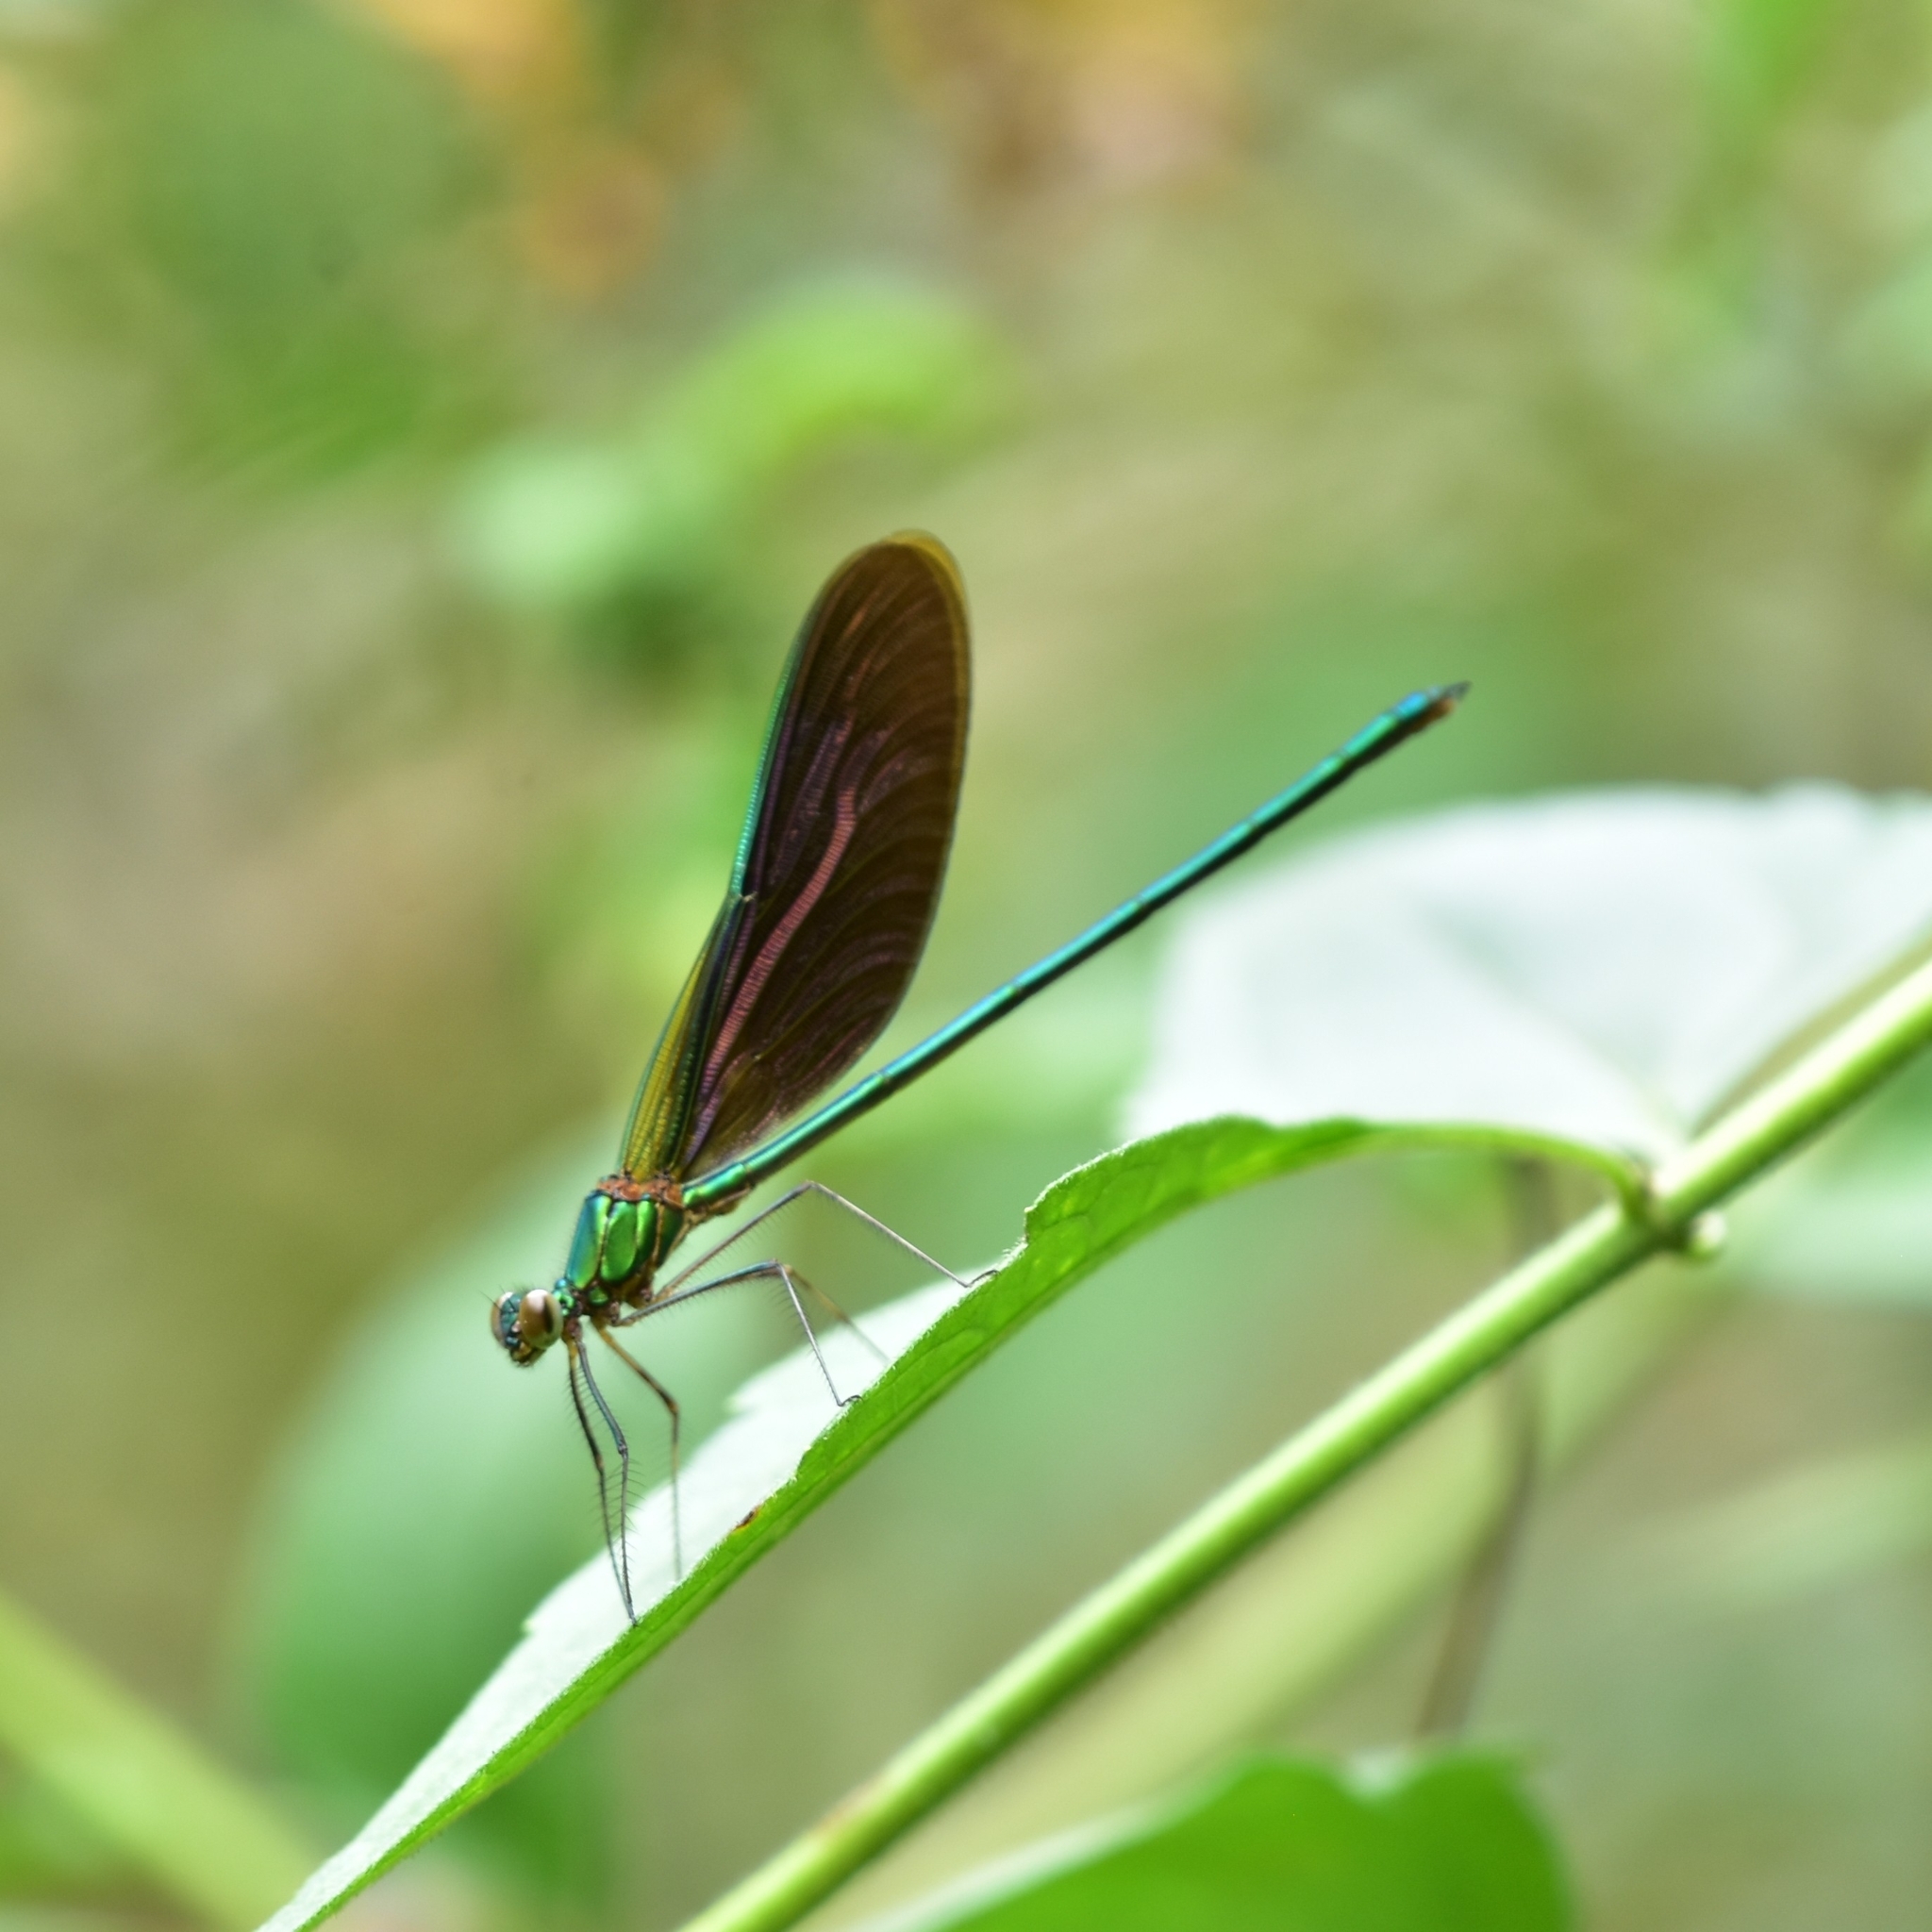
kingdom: Animalia
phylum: Arthropoda
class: Insecta
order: Odonata
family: Calopterygidae
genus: Neurobasis
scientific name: Neurobasis chinensis
